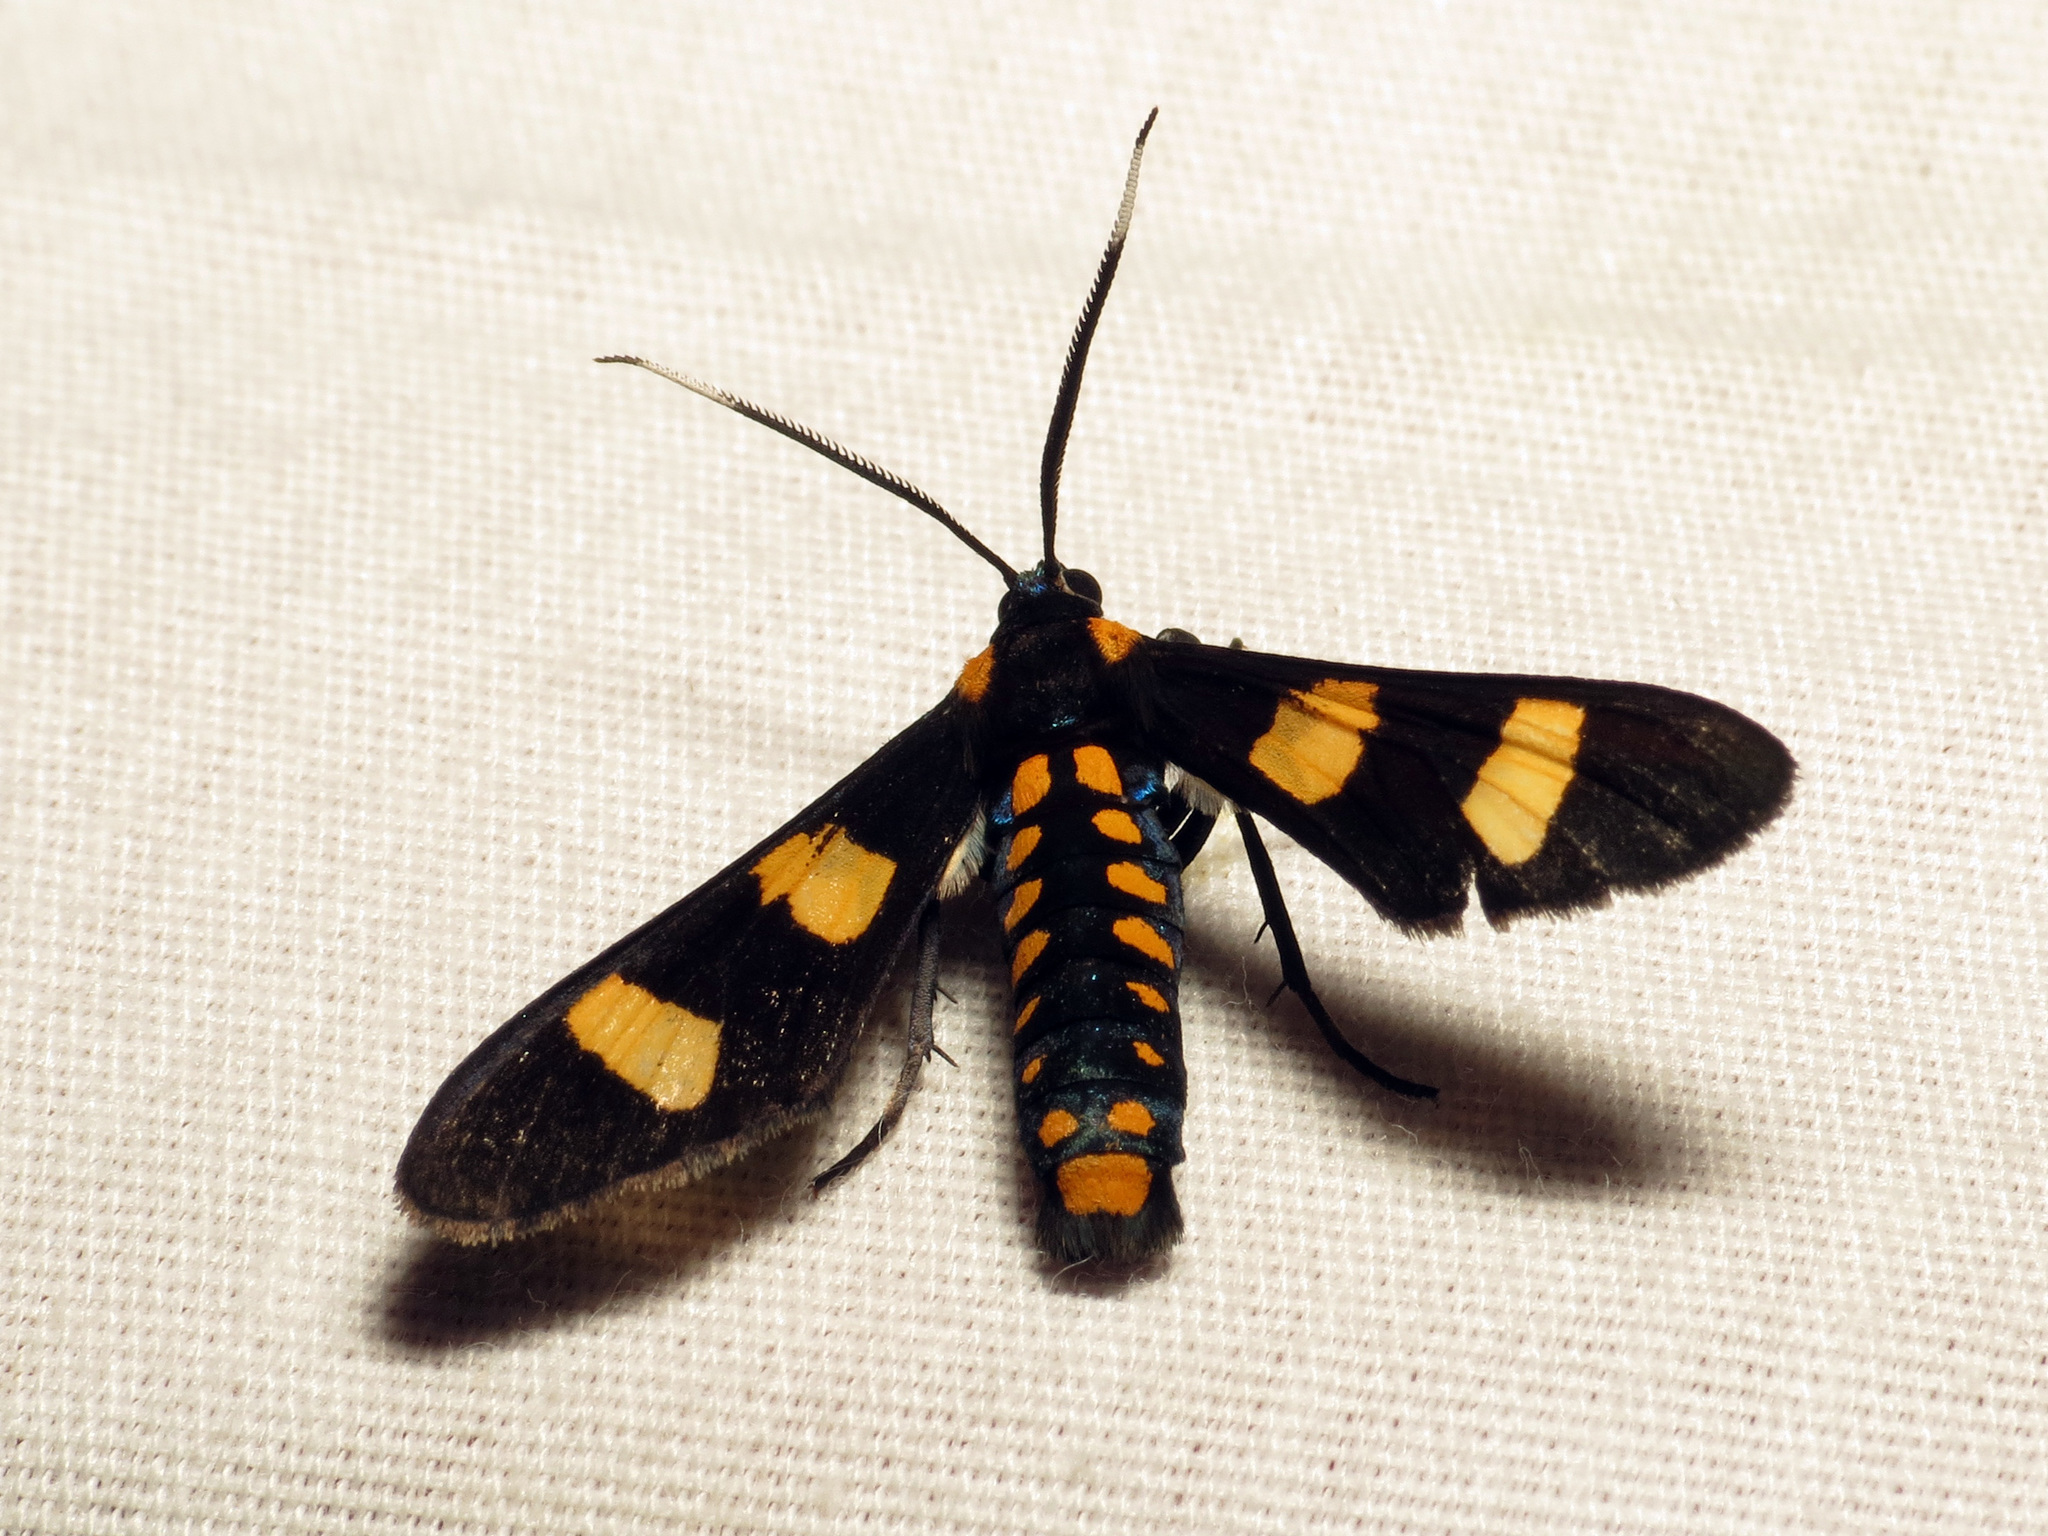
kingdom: Animalia
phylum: Arthropoda
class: Insecta
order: Lepidoptera
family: Erebidae
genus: Phoenicoprocta
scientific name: Phoenicoprocta hampsonii
